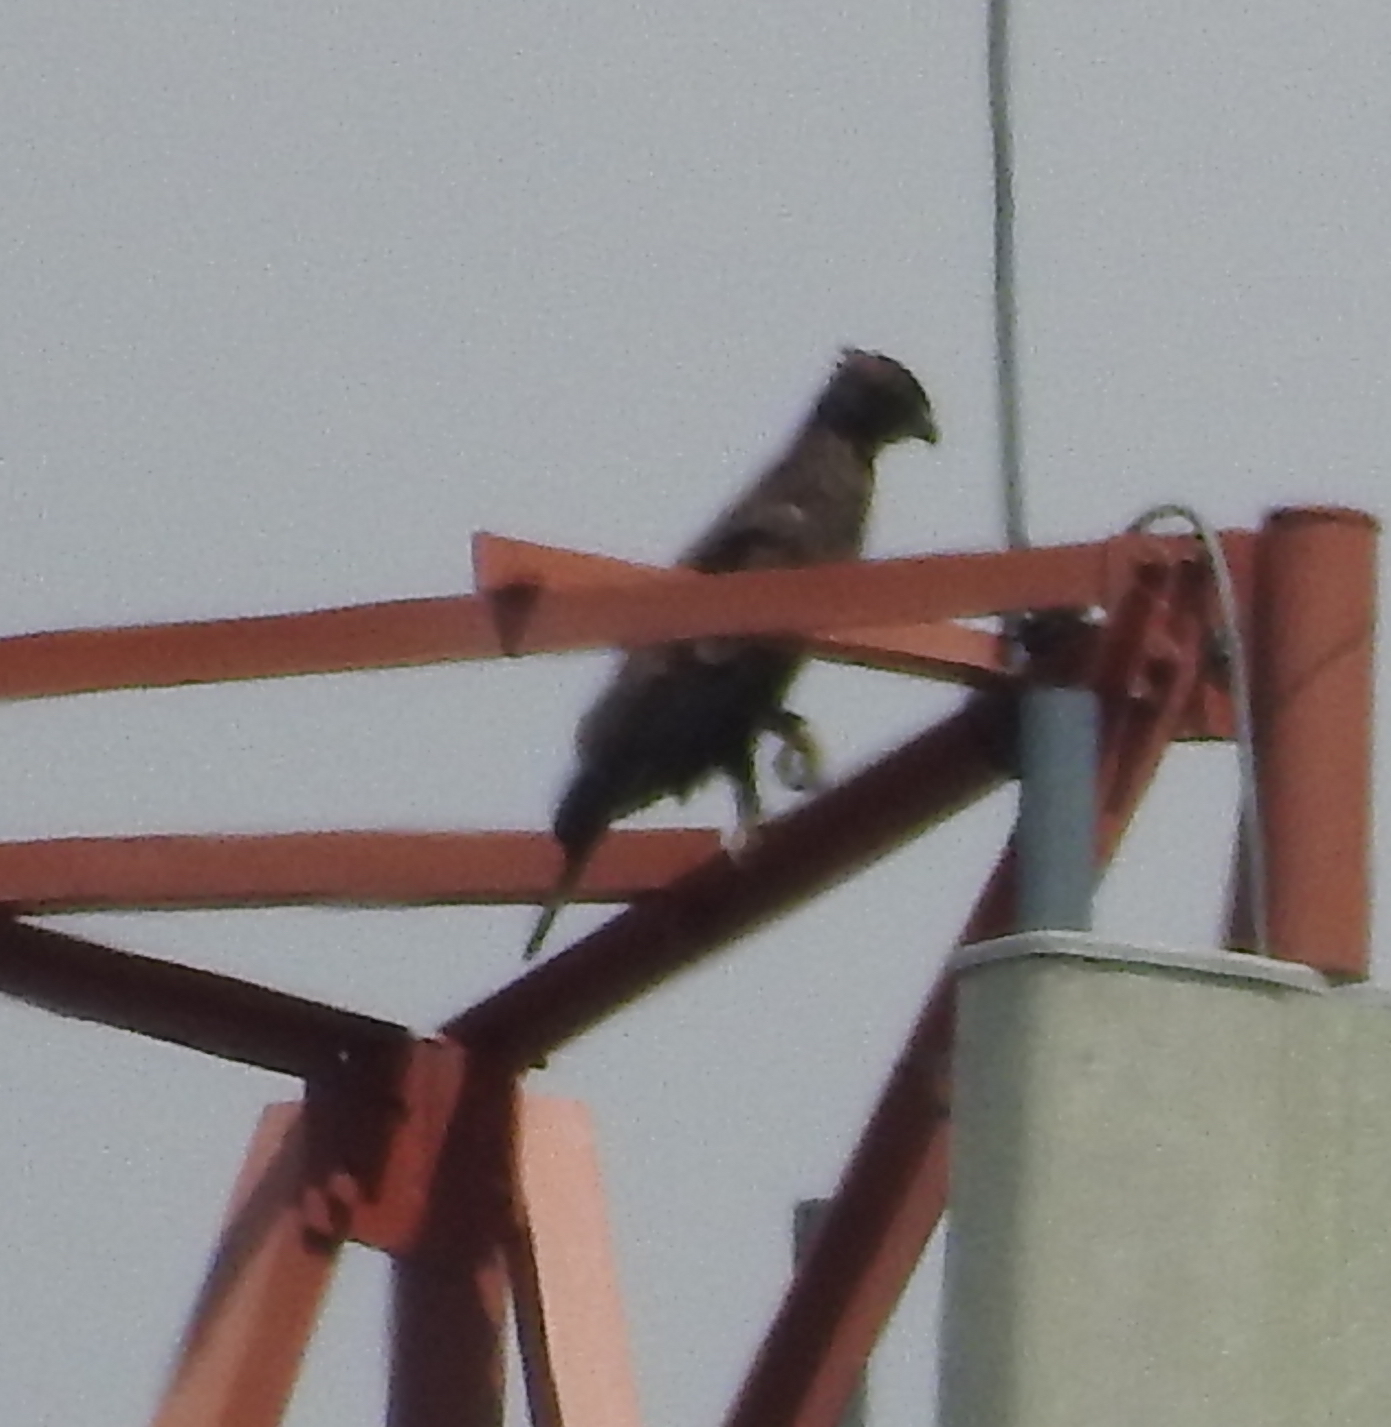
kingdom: Animalia
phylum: Chordata
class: Aves
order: Accipitriformes
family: Accipitridae
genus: Nisaetus
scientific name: Nisaetus cirrhatus
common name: Changeable hawk-eagle
